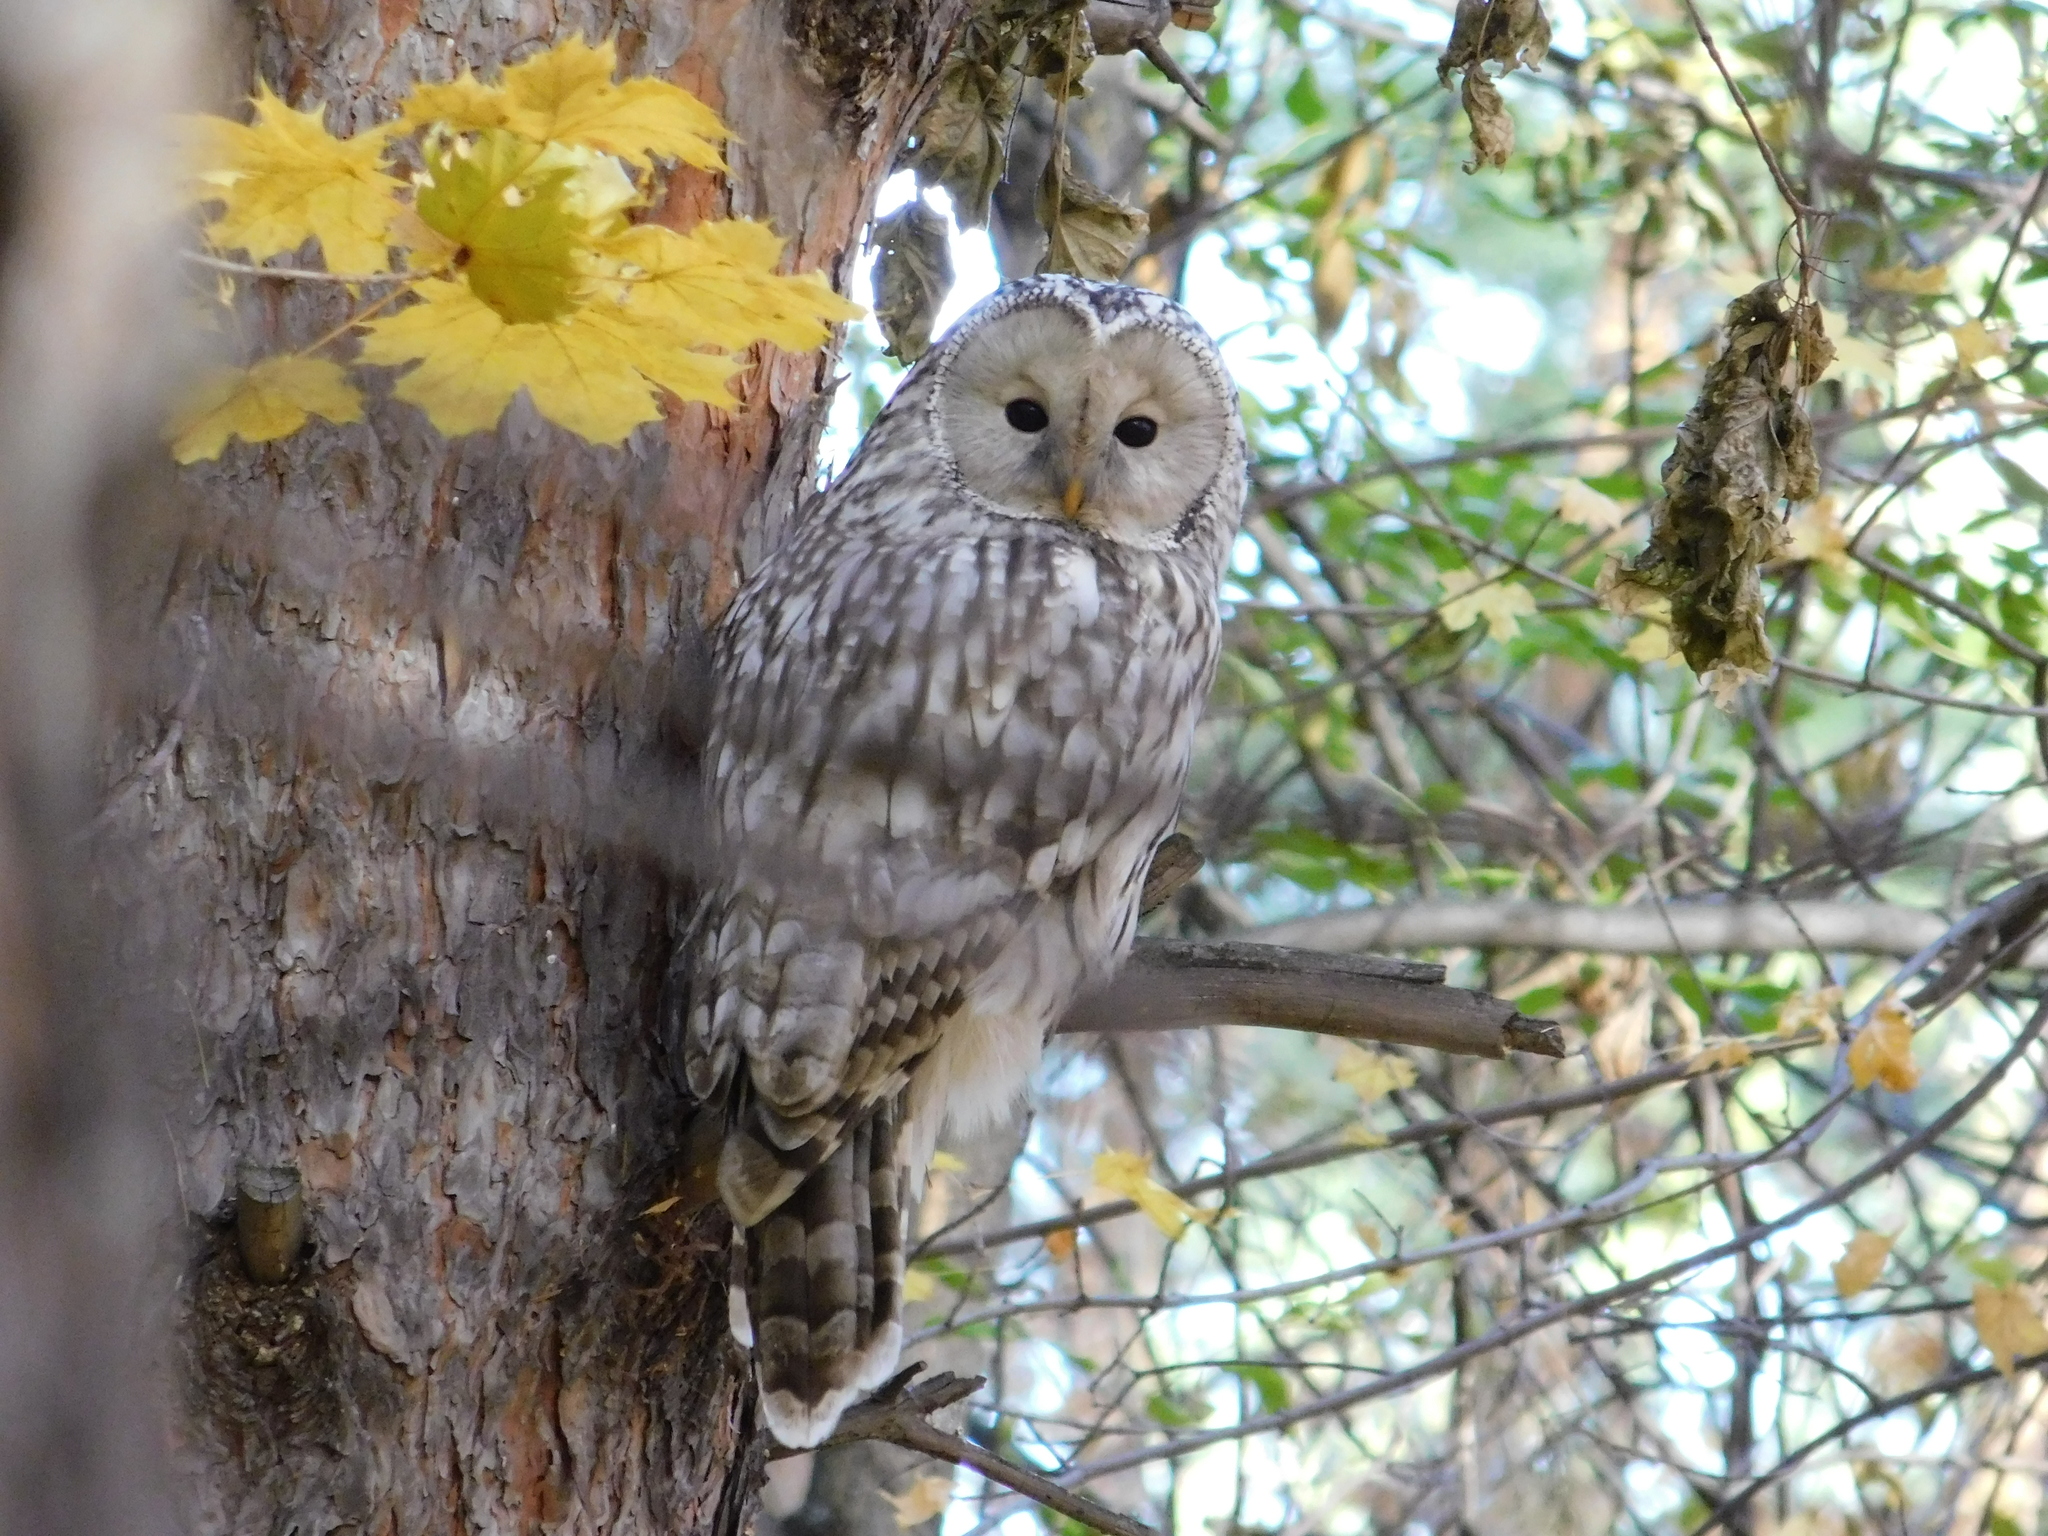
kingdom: Animalia
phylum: Chordata
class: Aves
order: Strigiformes
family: Strigidae
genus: Strix
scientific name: Strix uralensis
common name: Ural owl
